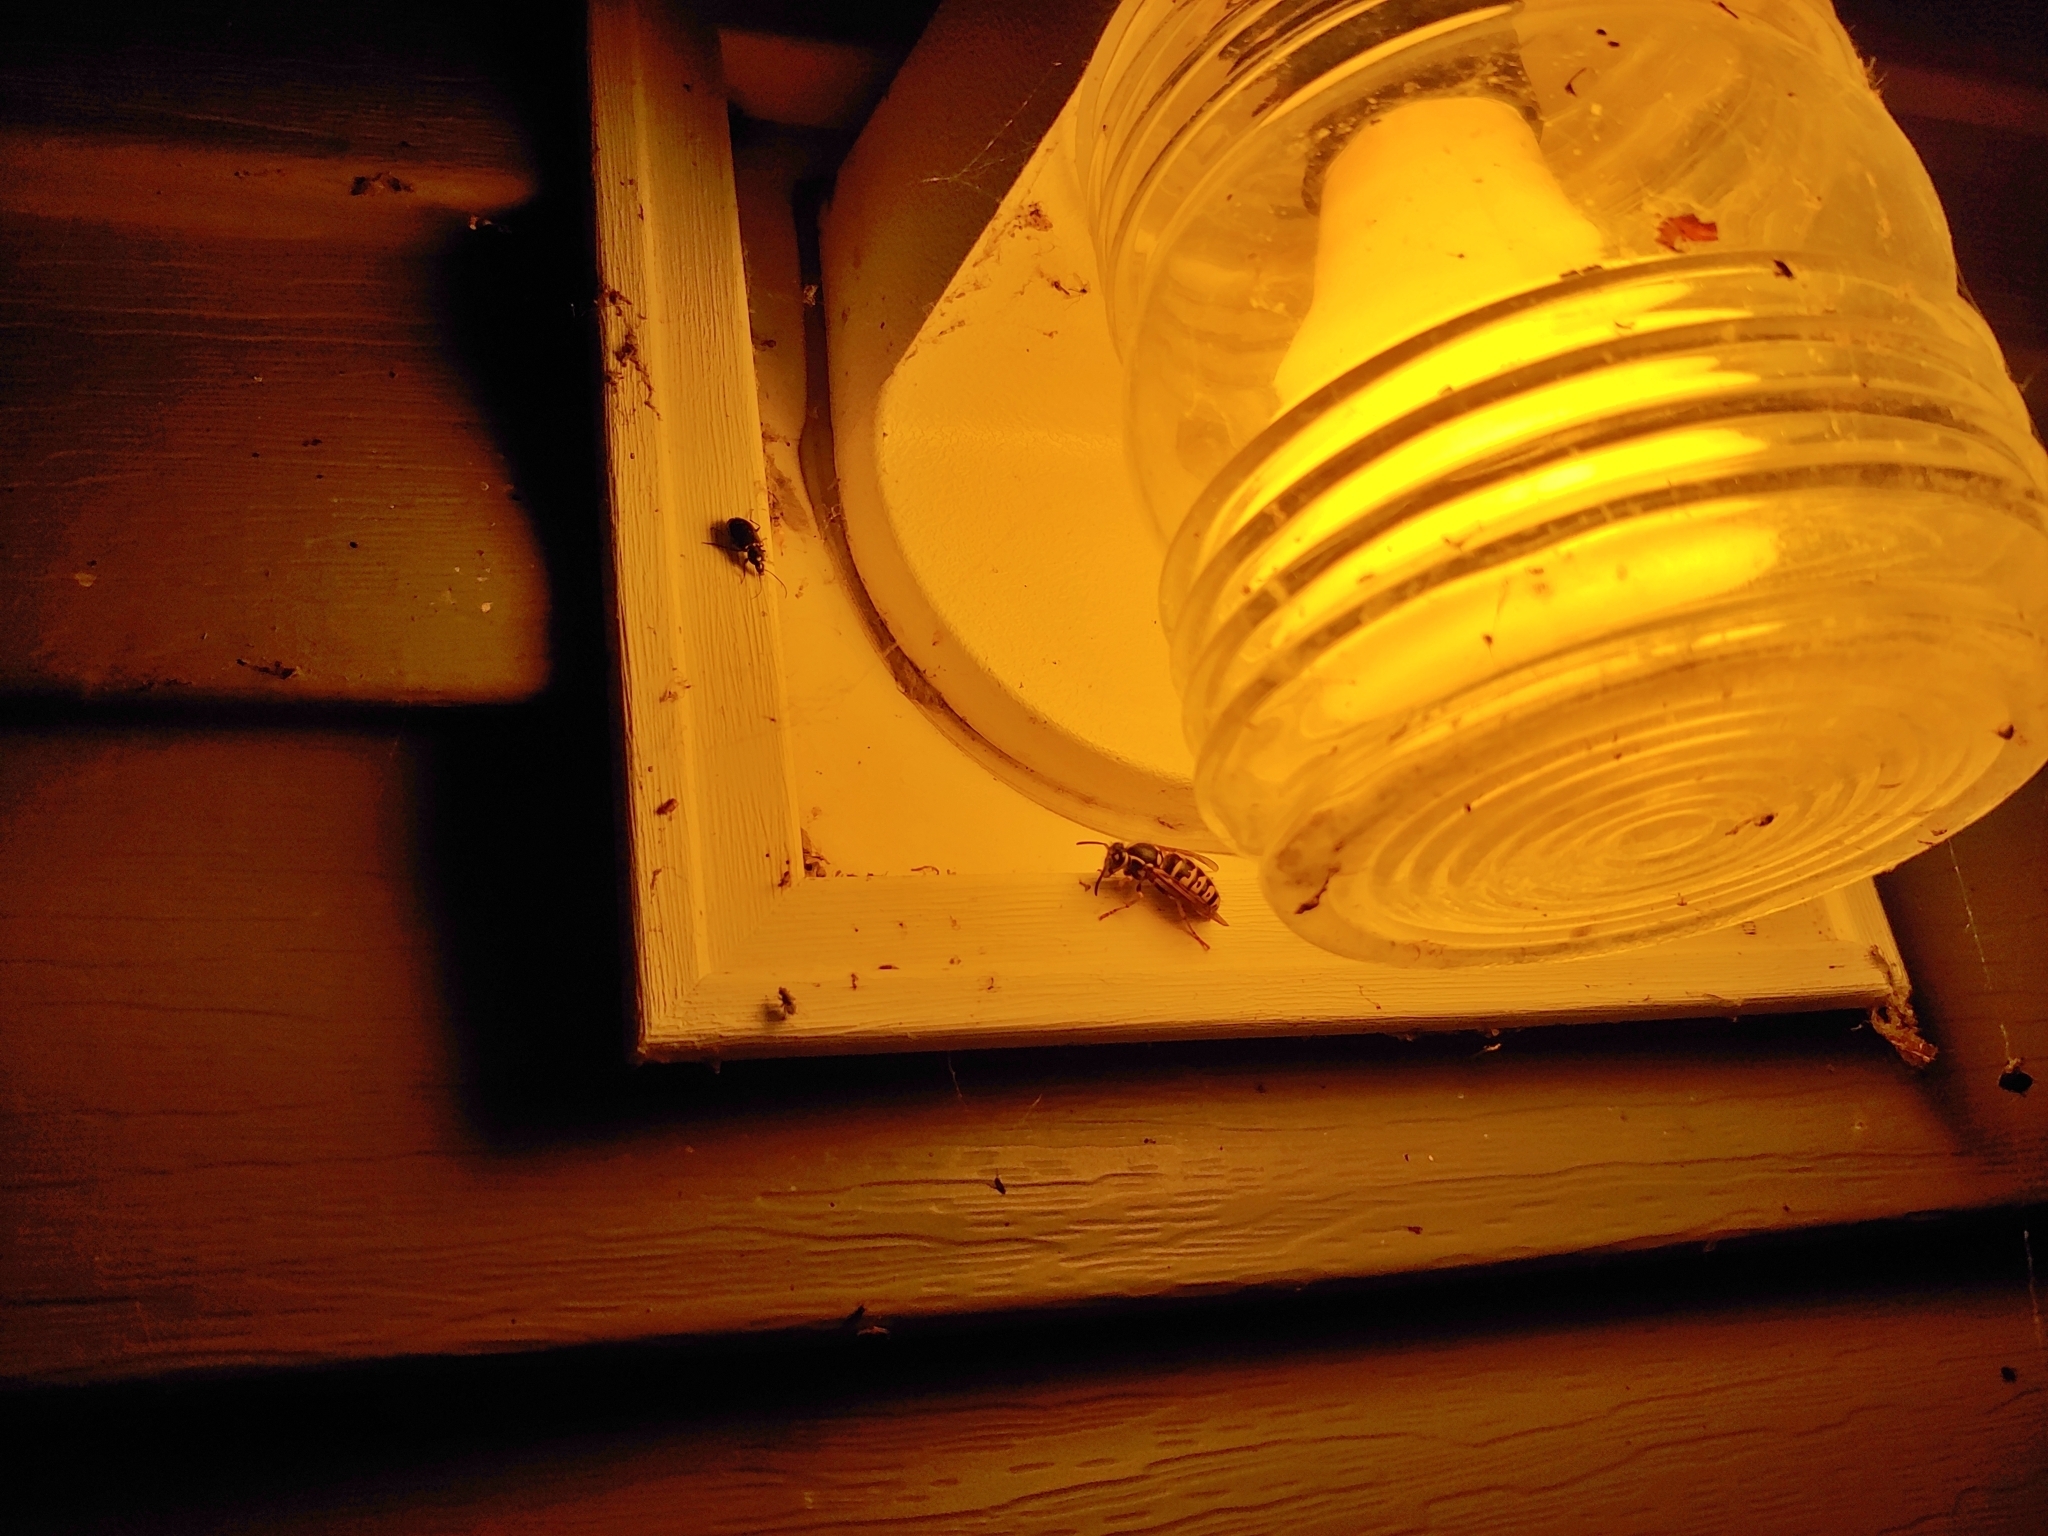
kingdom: Animalia
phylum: Arthropoda
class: Insecta
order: Hymenoptera
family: Vespidae
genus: Dolichovespula
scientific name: Dolichovespula arenaria
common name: Aerial yellowjacket
